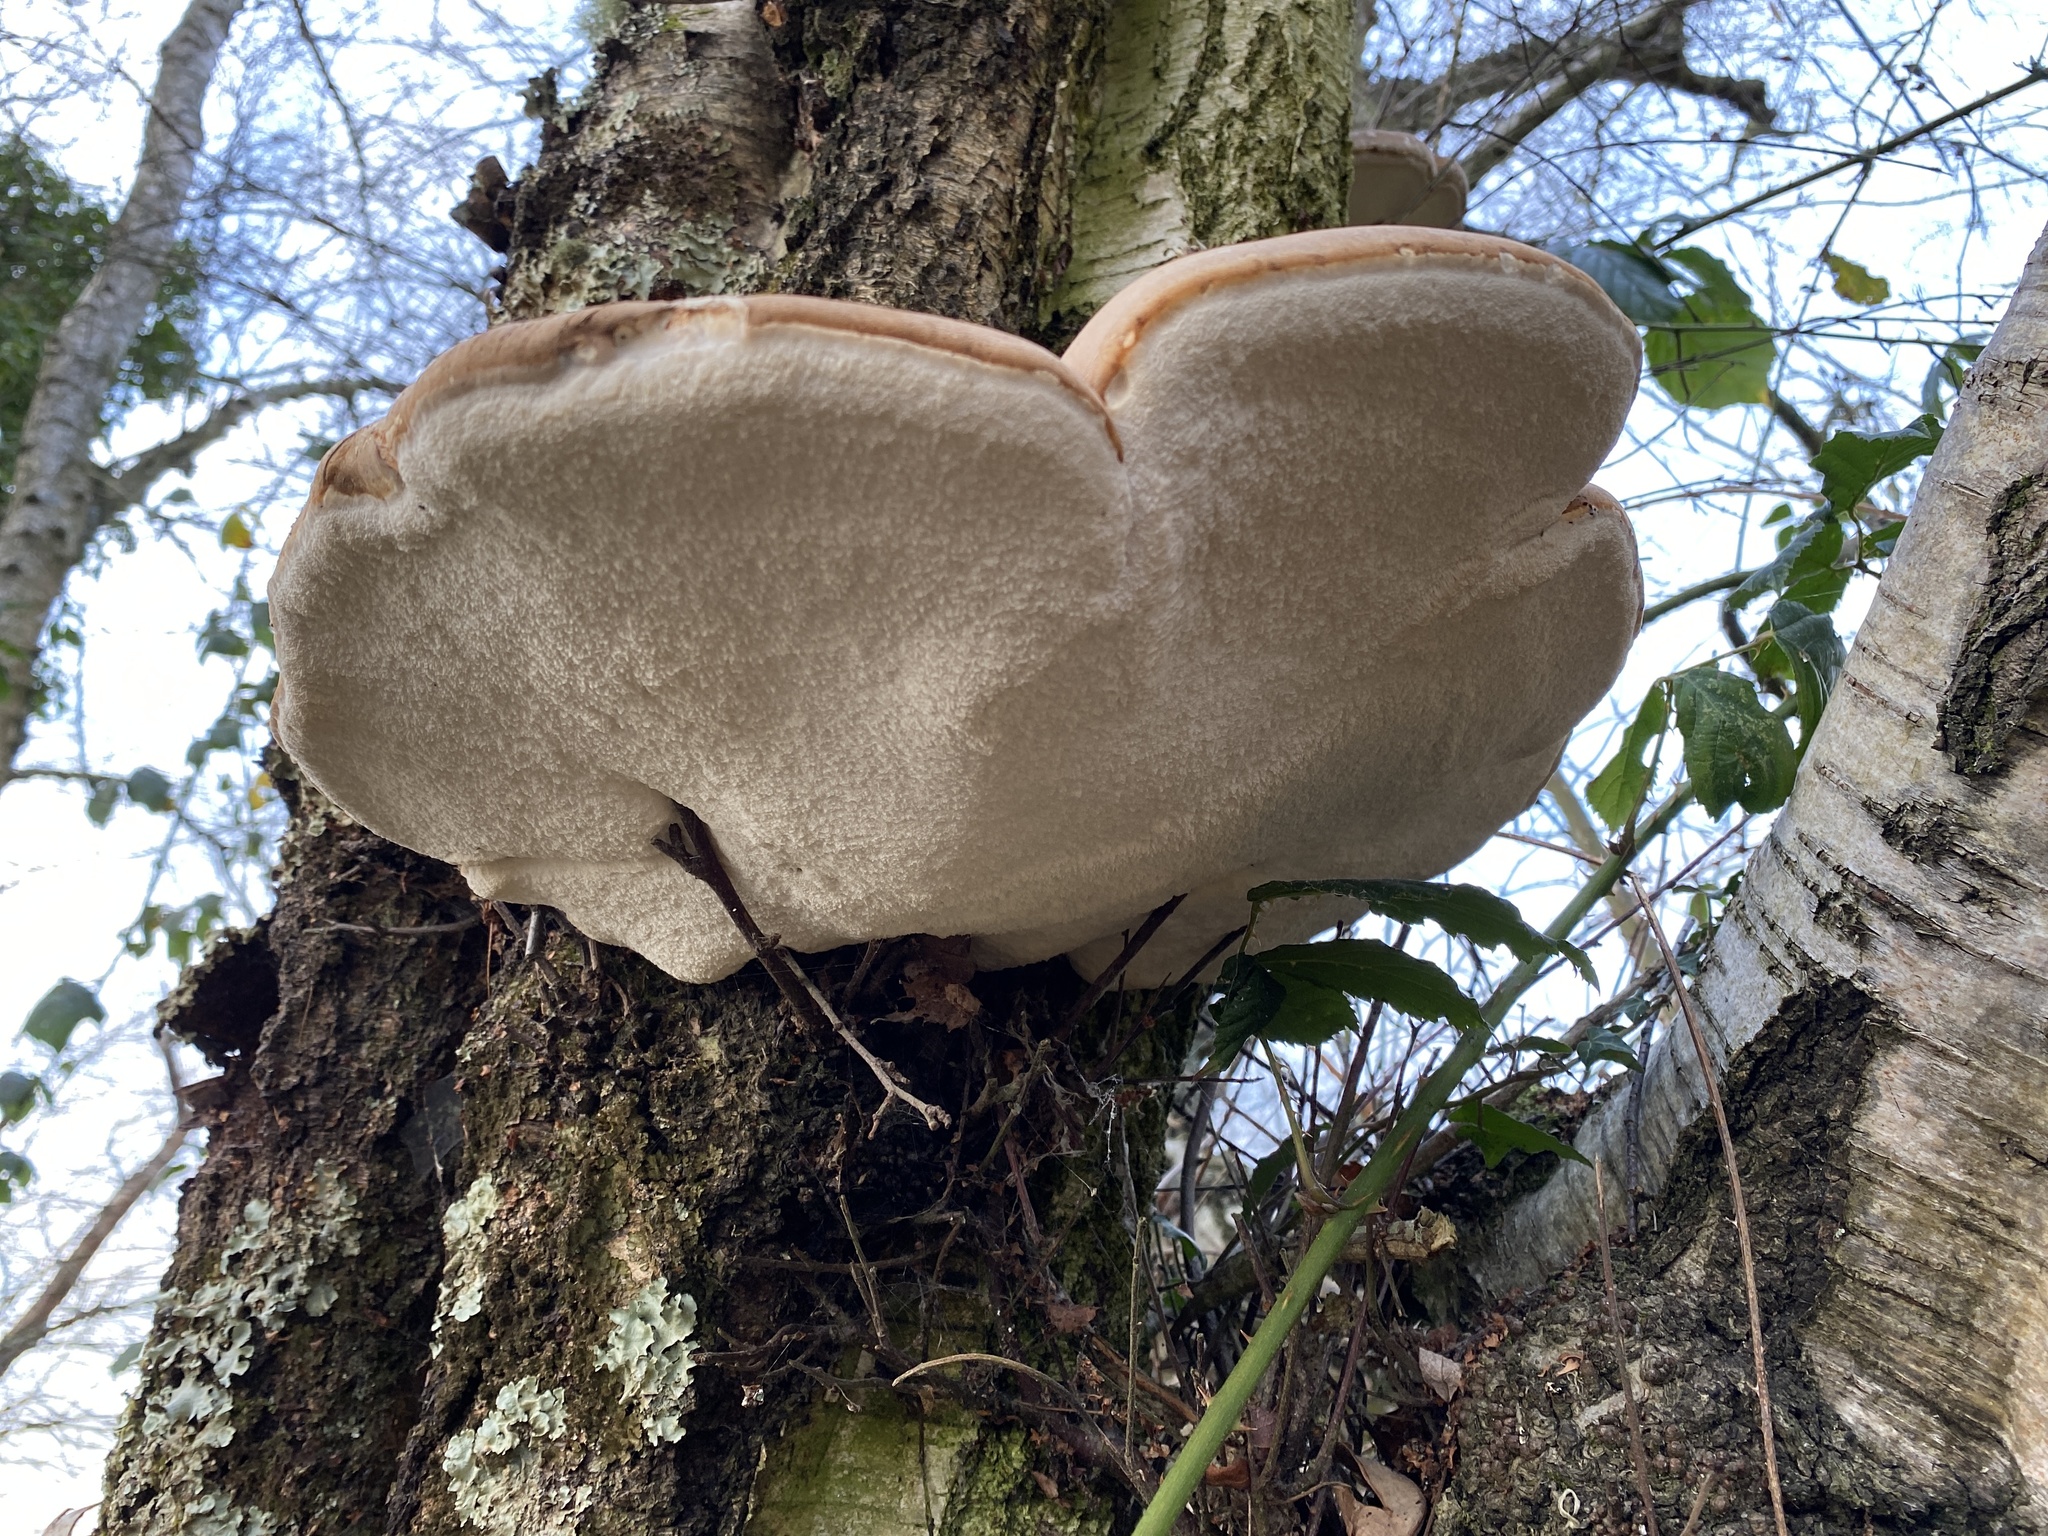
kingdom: Fungi
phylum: Basidiomycota
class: Agaricomycetes
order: Polyporales
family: Fomitopsidaceae
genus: Fomitopsis
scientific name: Fomitopsis betulina
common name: Birch polypore
